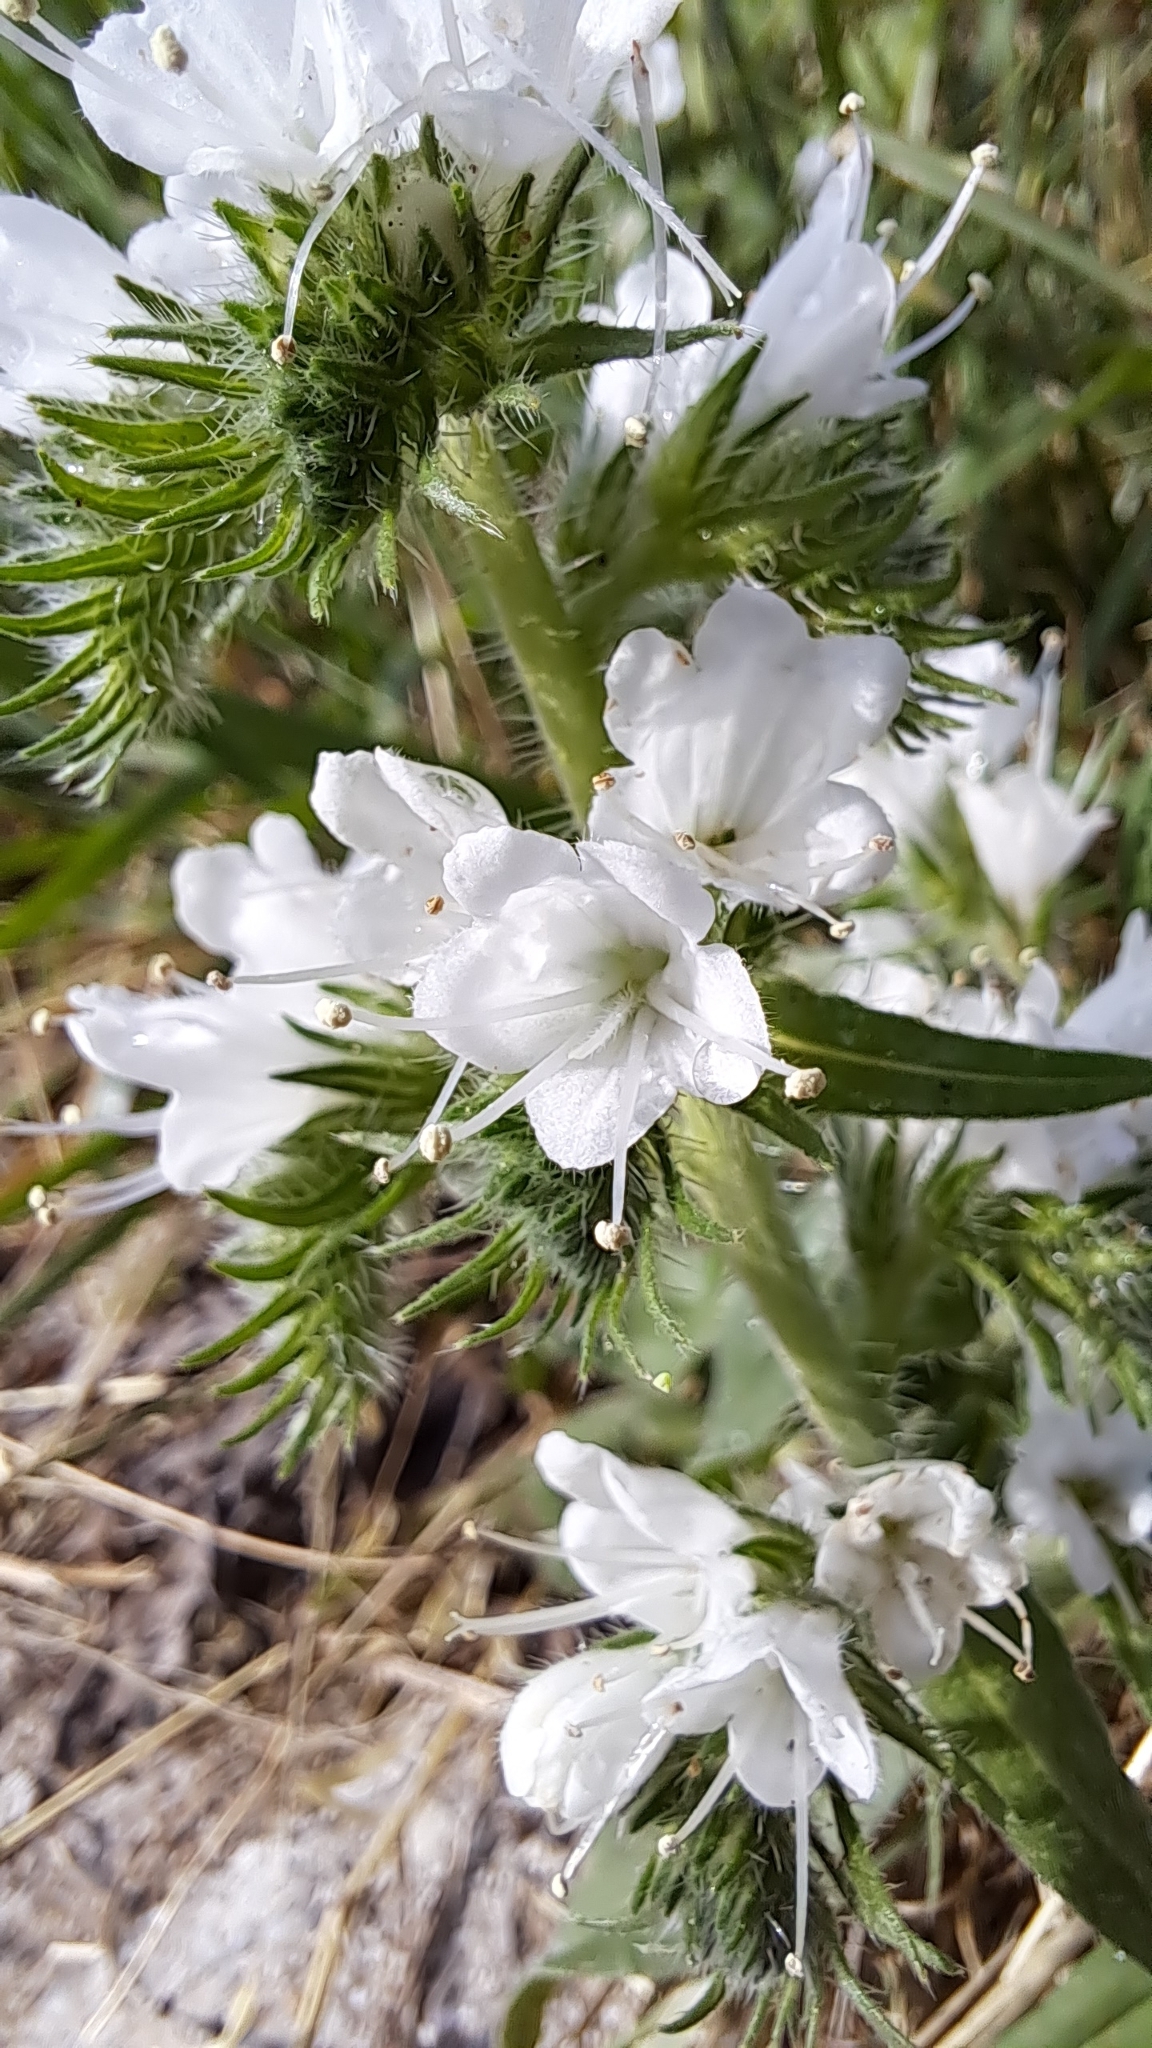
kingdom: Plantae
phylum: Tracheophyta
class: Magnoliopsida
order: Boraginales
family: Boraginaceae
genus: Echium
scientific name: Echium vulgare
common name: Common viper's bugloss
